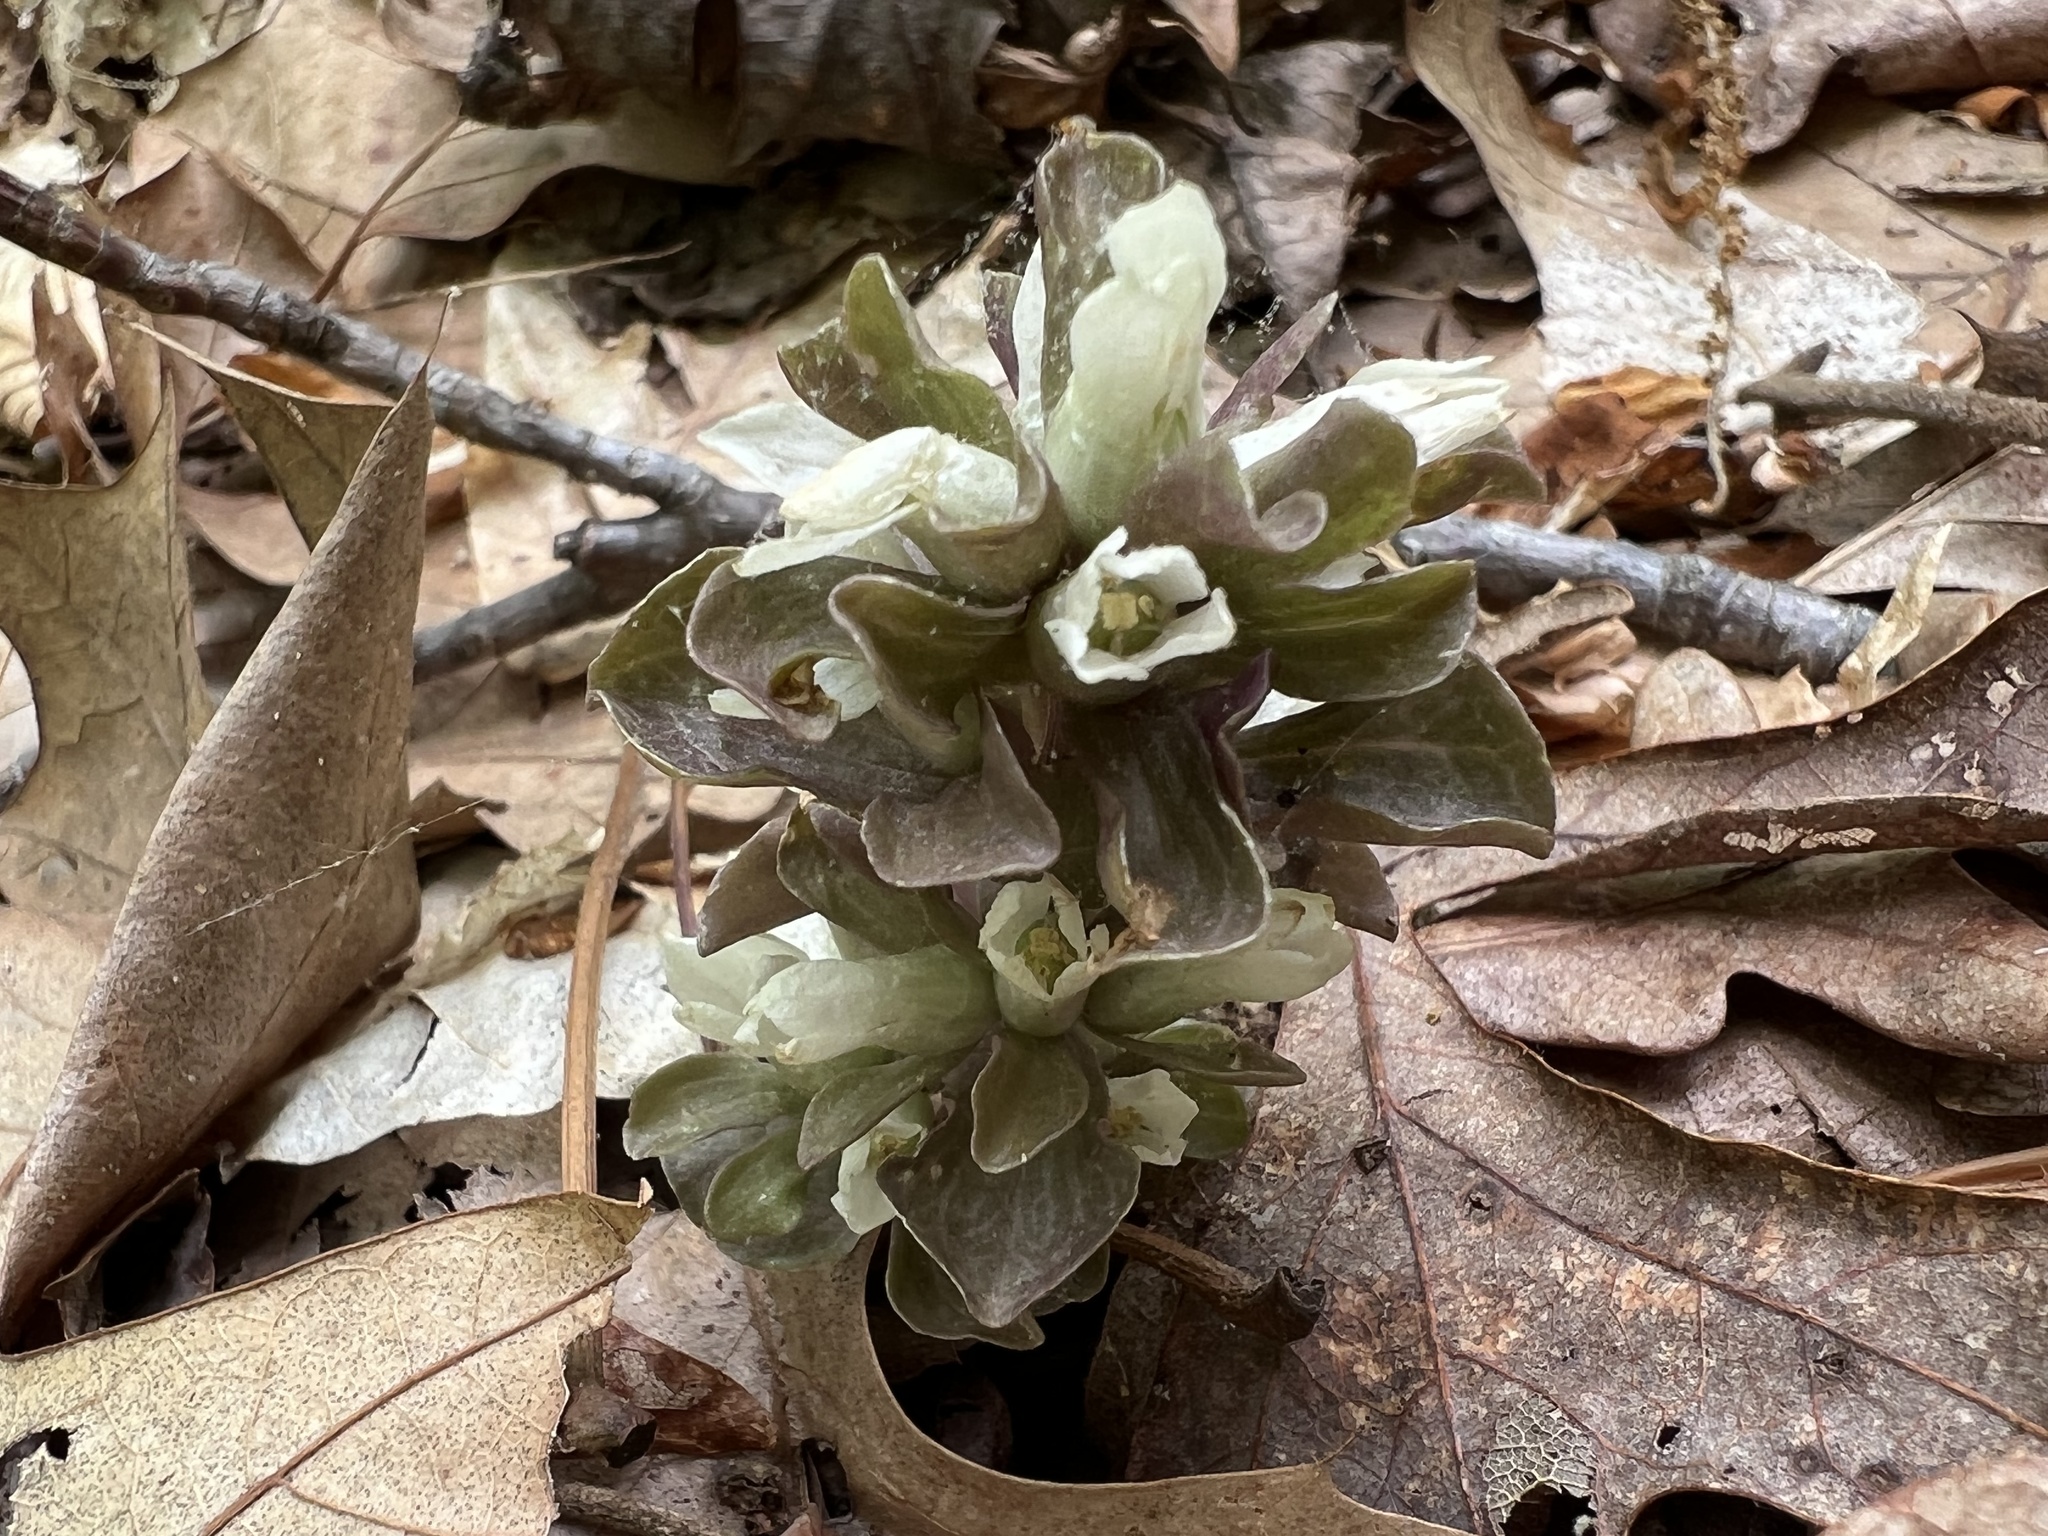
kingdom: Plantae
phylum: Tracheophyta
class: Magnoliopsida
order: Gentianales
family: Gentianaceae
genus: Obolaria
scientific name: Obolaria virginica
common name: Pennywort
